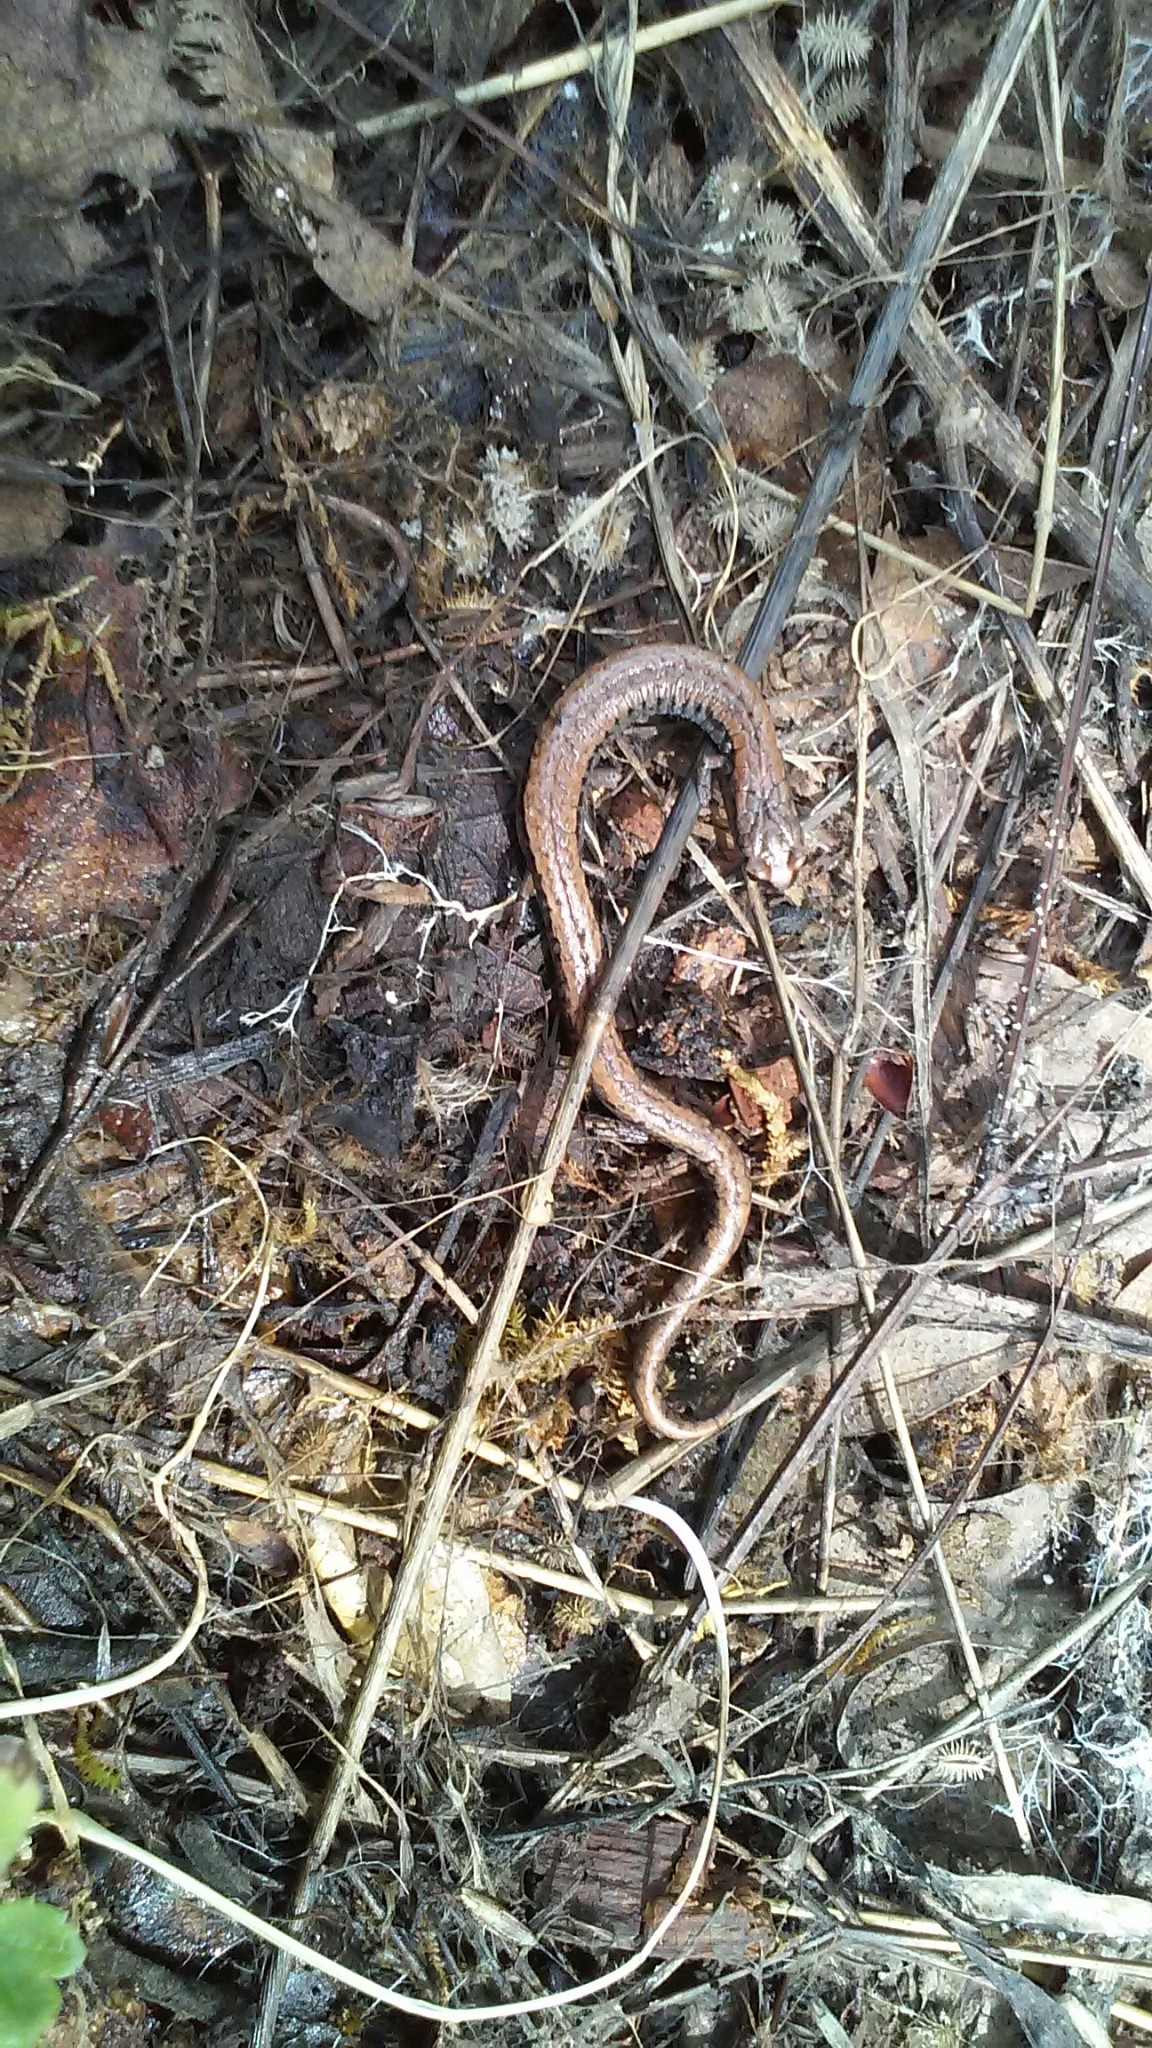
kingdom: Animalia
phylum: Chordata
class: Amphibia
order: Caudata
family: Plethodontidae
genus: Batrachoseps
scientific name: Batrachoseps attenuatus
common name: California slender salamander
